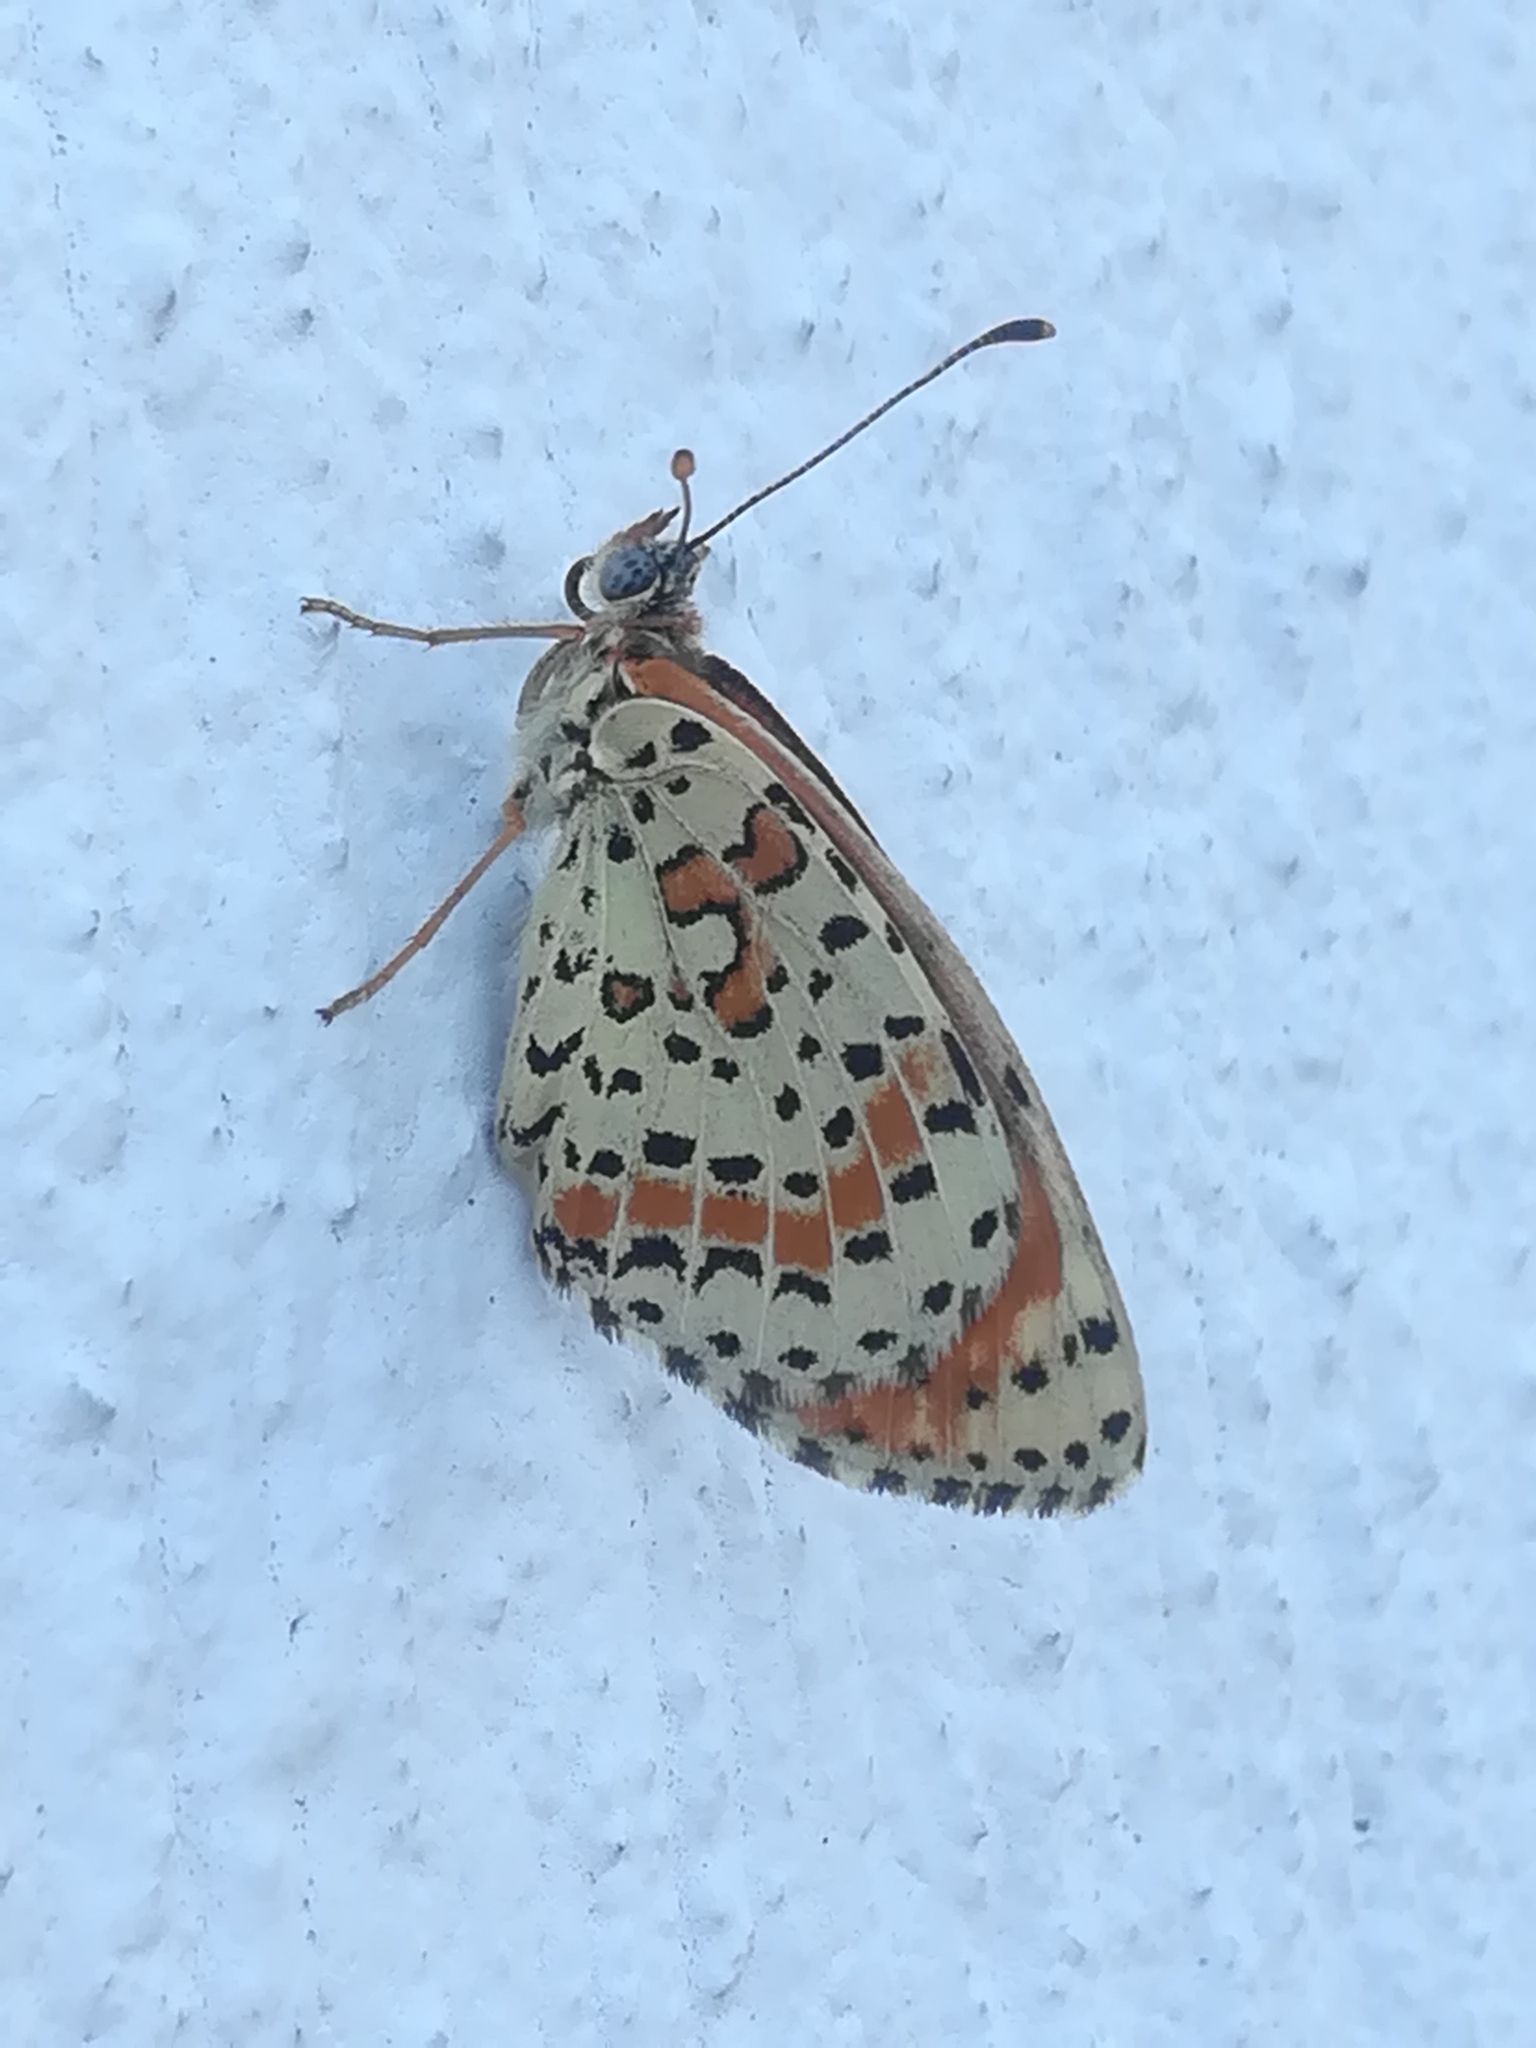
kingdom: Animalia
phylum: Arthropoda
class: Insecta
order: Lepidoptera
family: Nymphalidae
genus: Melitaea
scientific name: Melitaea didyma
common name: Spotted fritillary
